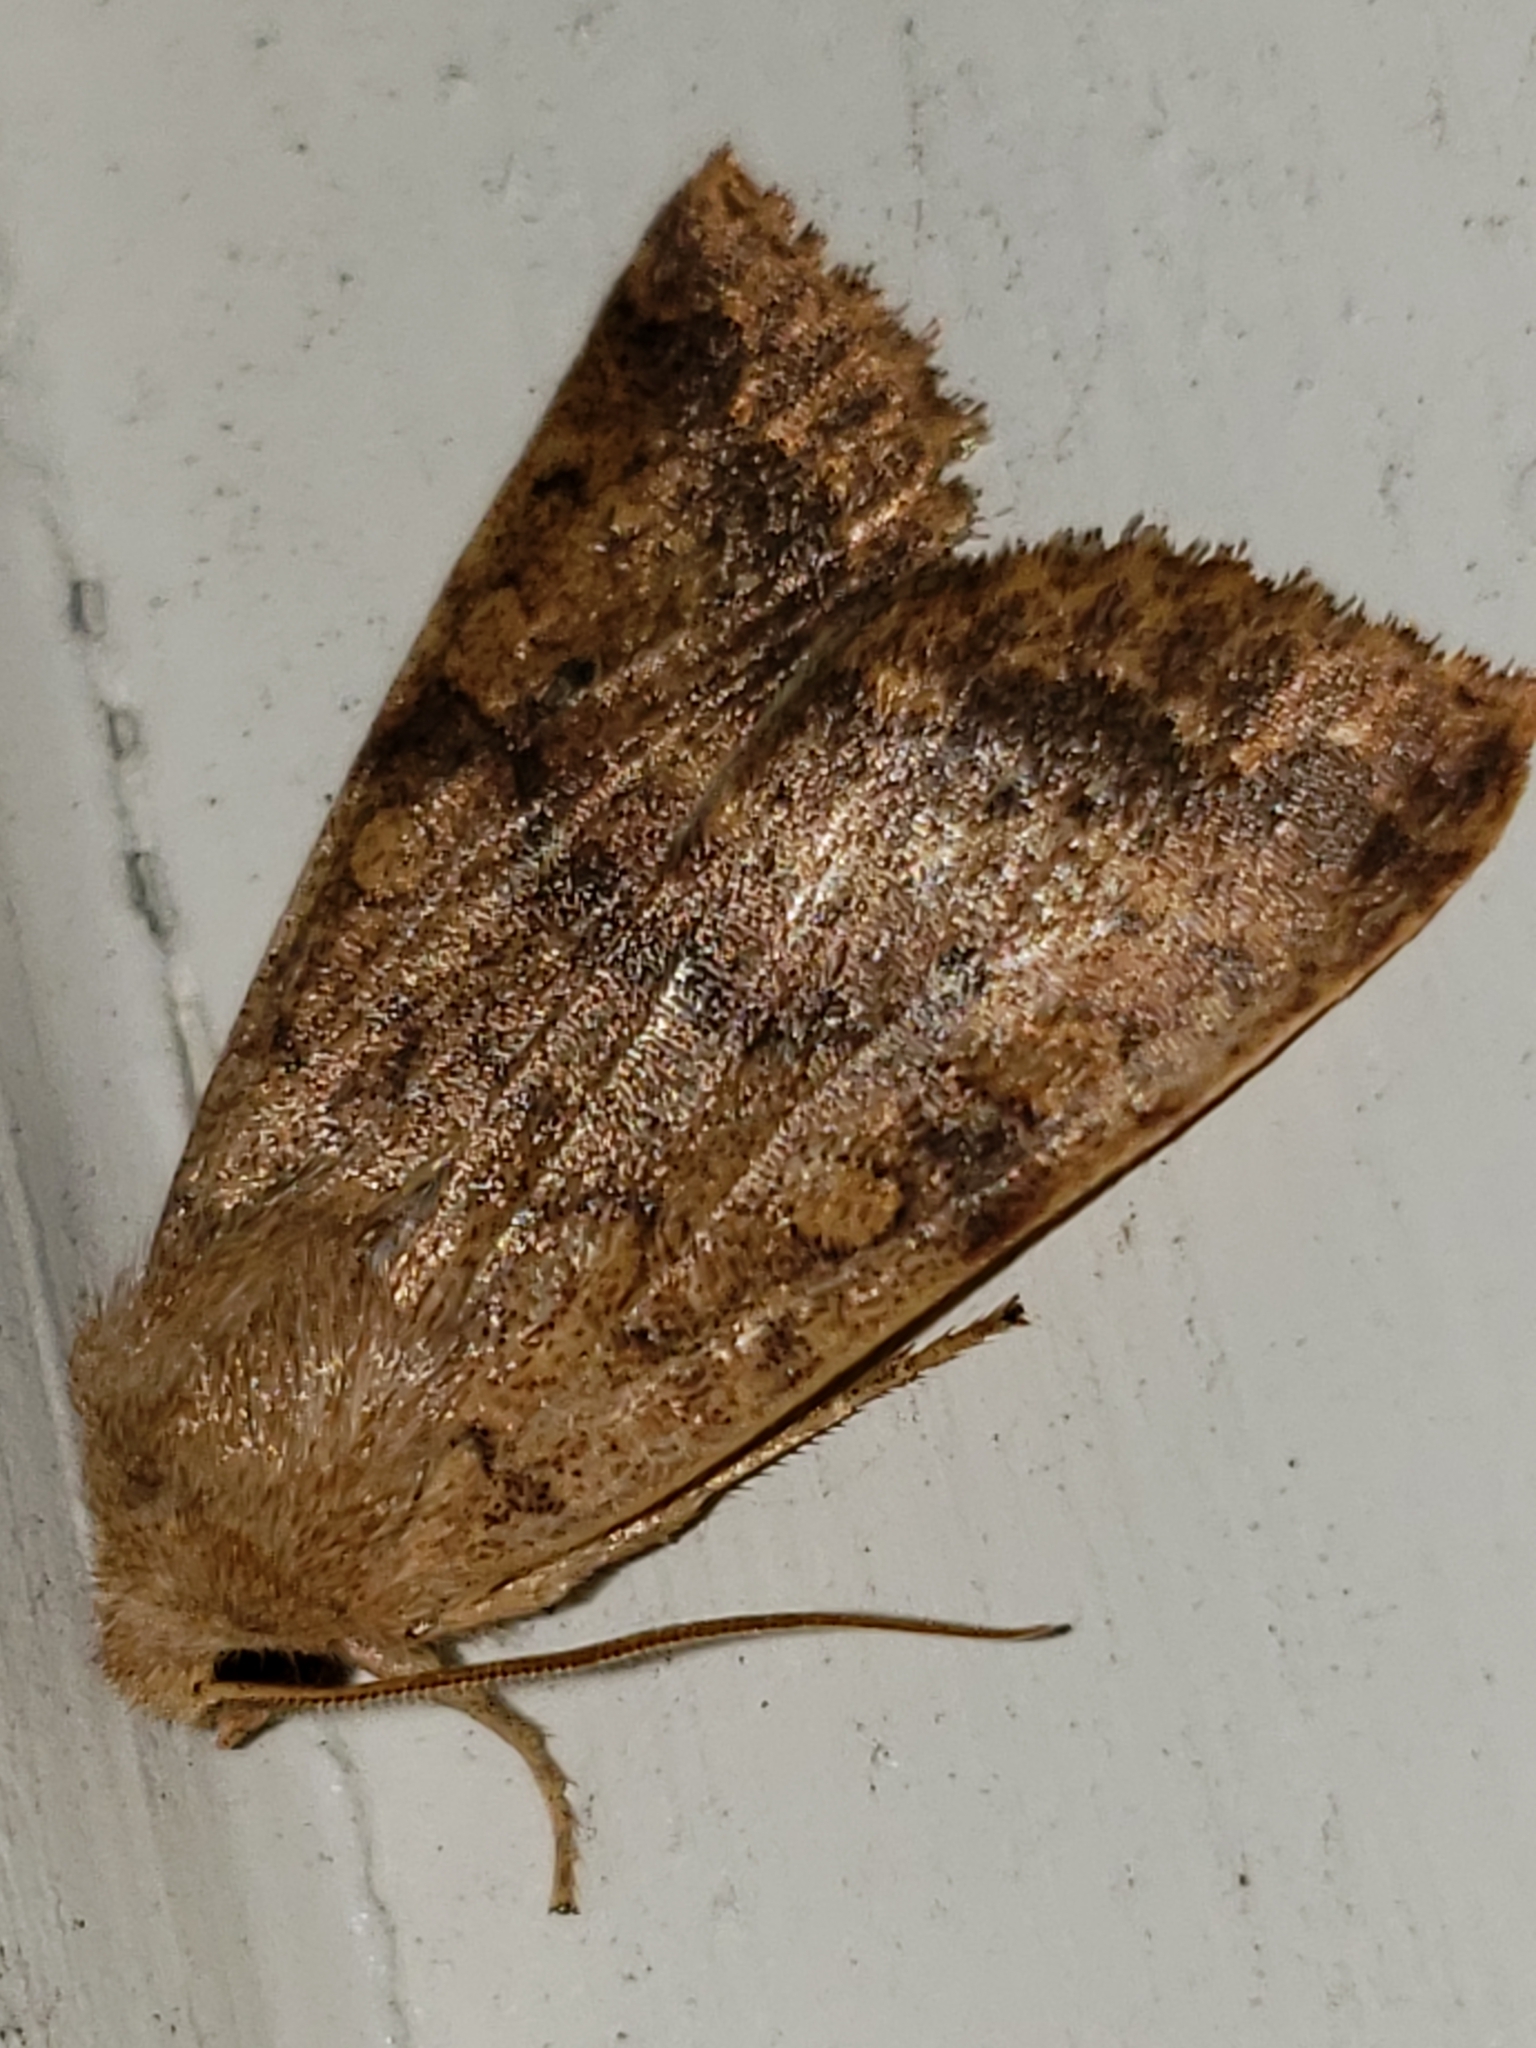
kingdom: Animalia
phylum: Arthropoda
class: Insecta
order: Lepidoptera
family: Noctuidae
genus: Agrochola
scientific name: Agrochola bicolorago
